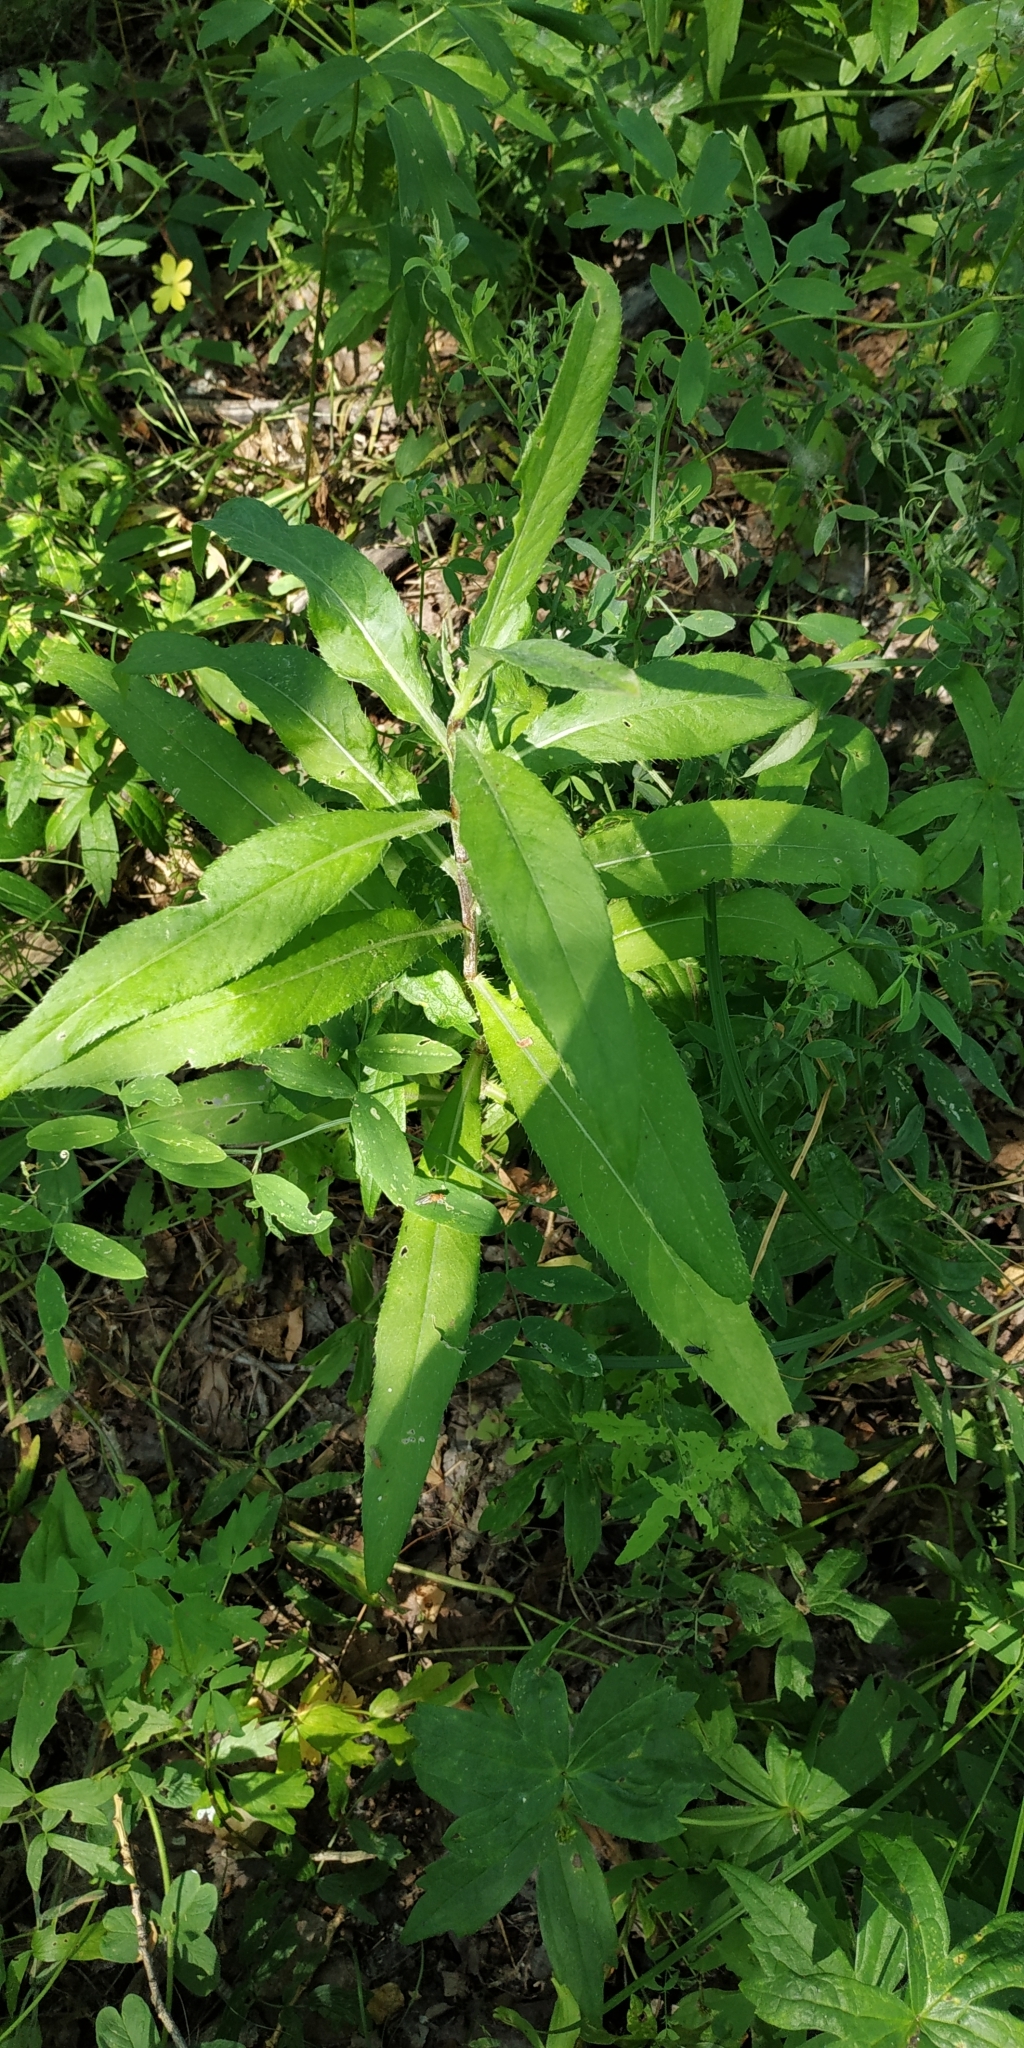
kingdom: Plantae
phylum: Tracheophyta
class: Magnoliopsida
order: Asterales
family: Asteraceae
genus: Cirsium
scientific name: Cirsium arvense
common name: Creeping thistle
